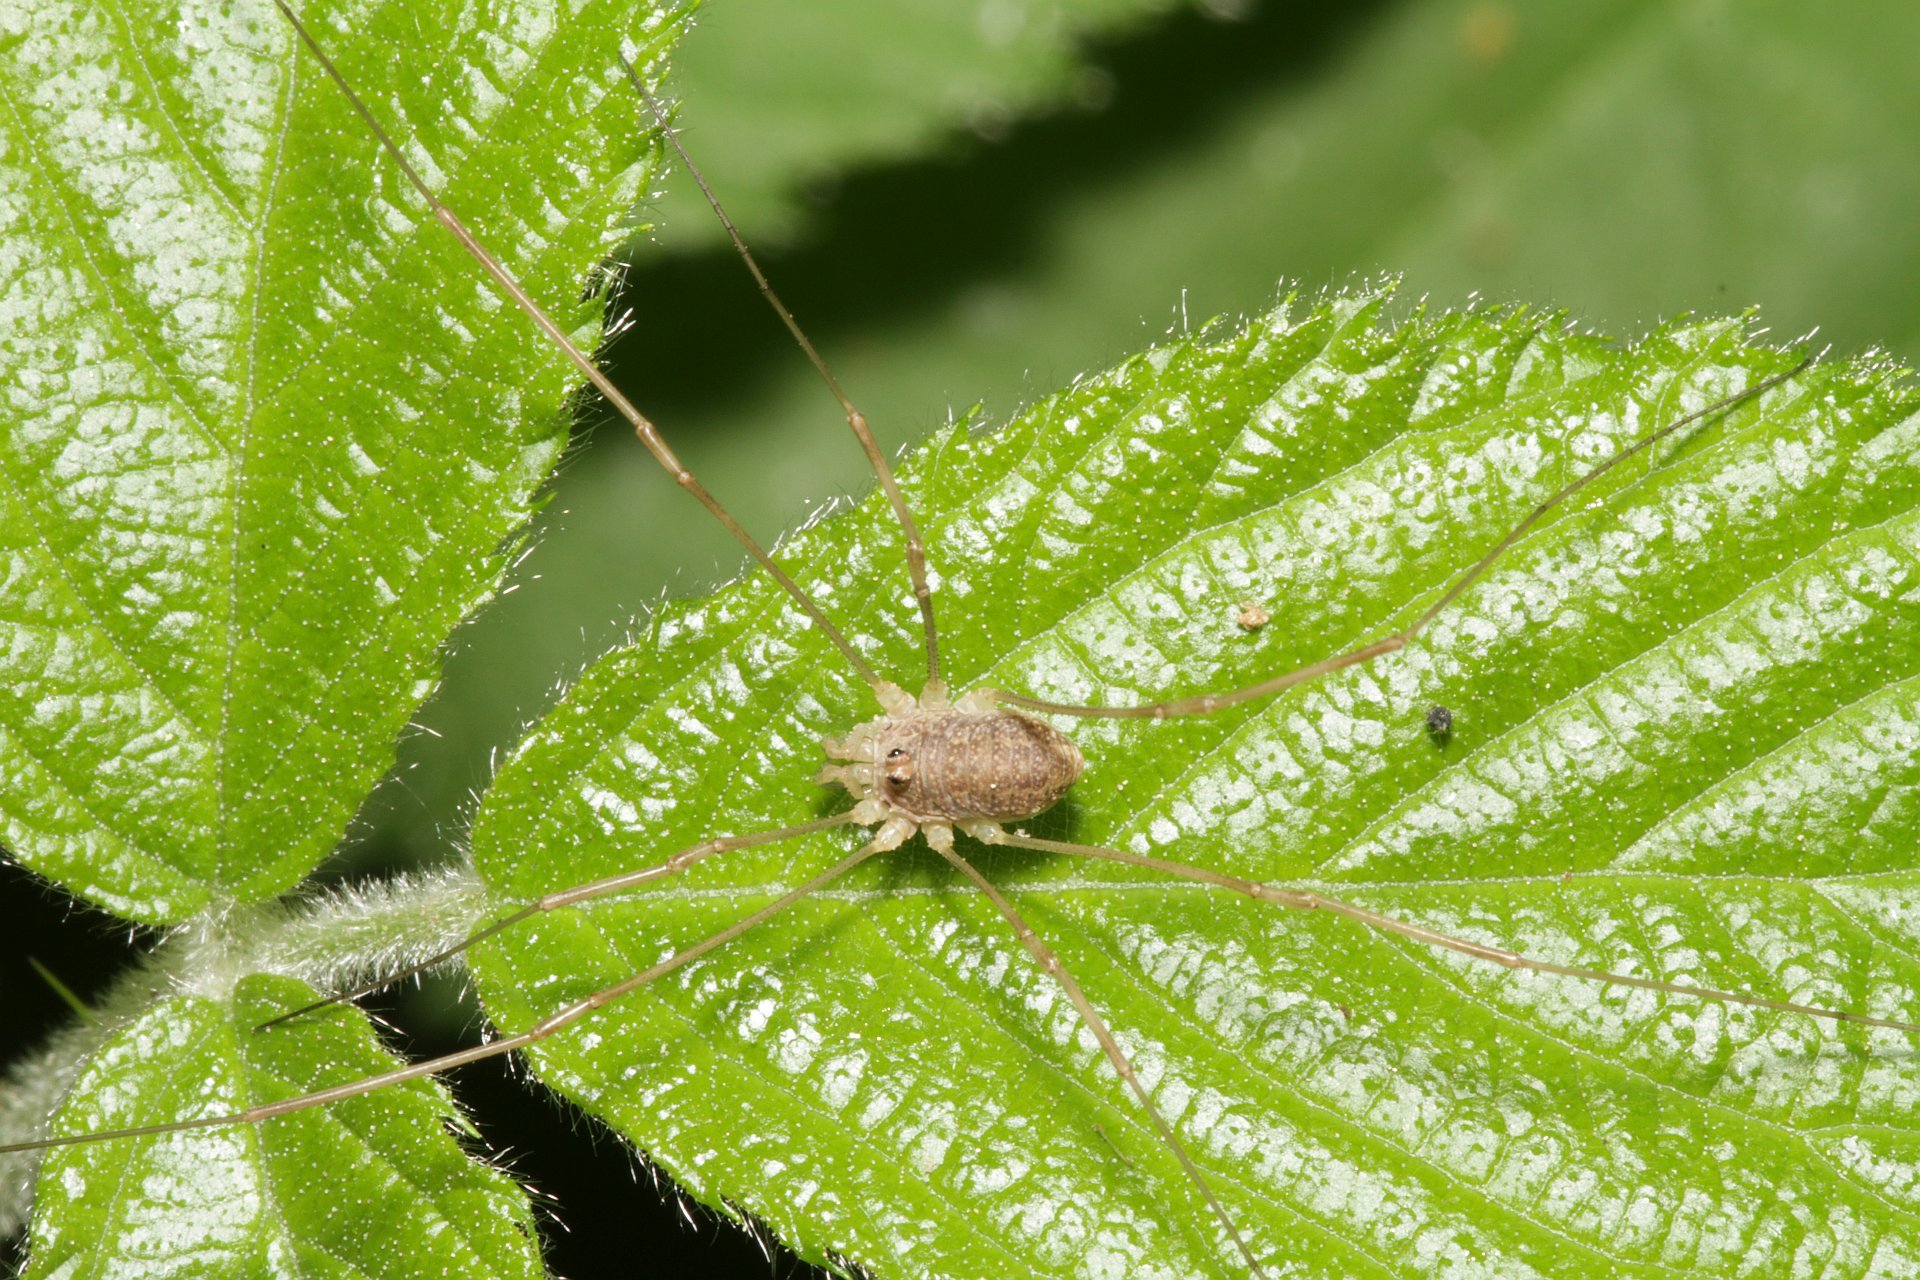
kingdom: Animalia
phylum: Arthropoda
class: Arachnida
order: Opiliones
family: Phalangiidae
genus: Rilaena
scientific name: Rilaena triangularis
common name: Spring harvestman
